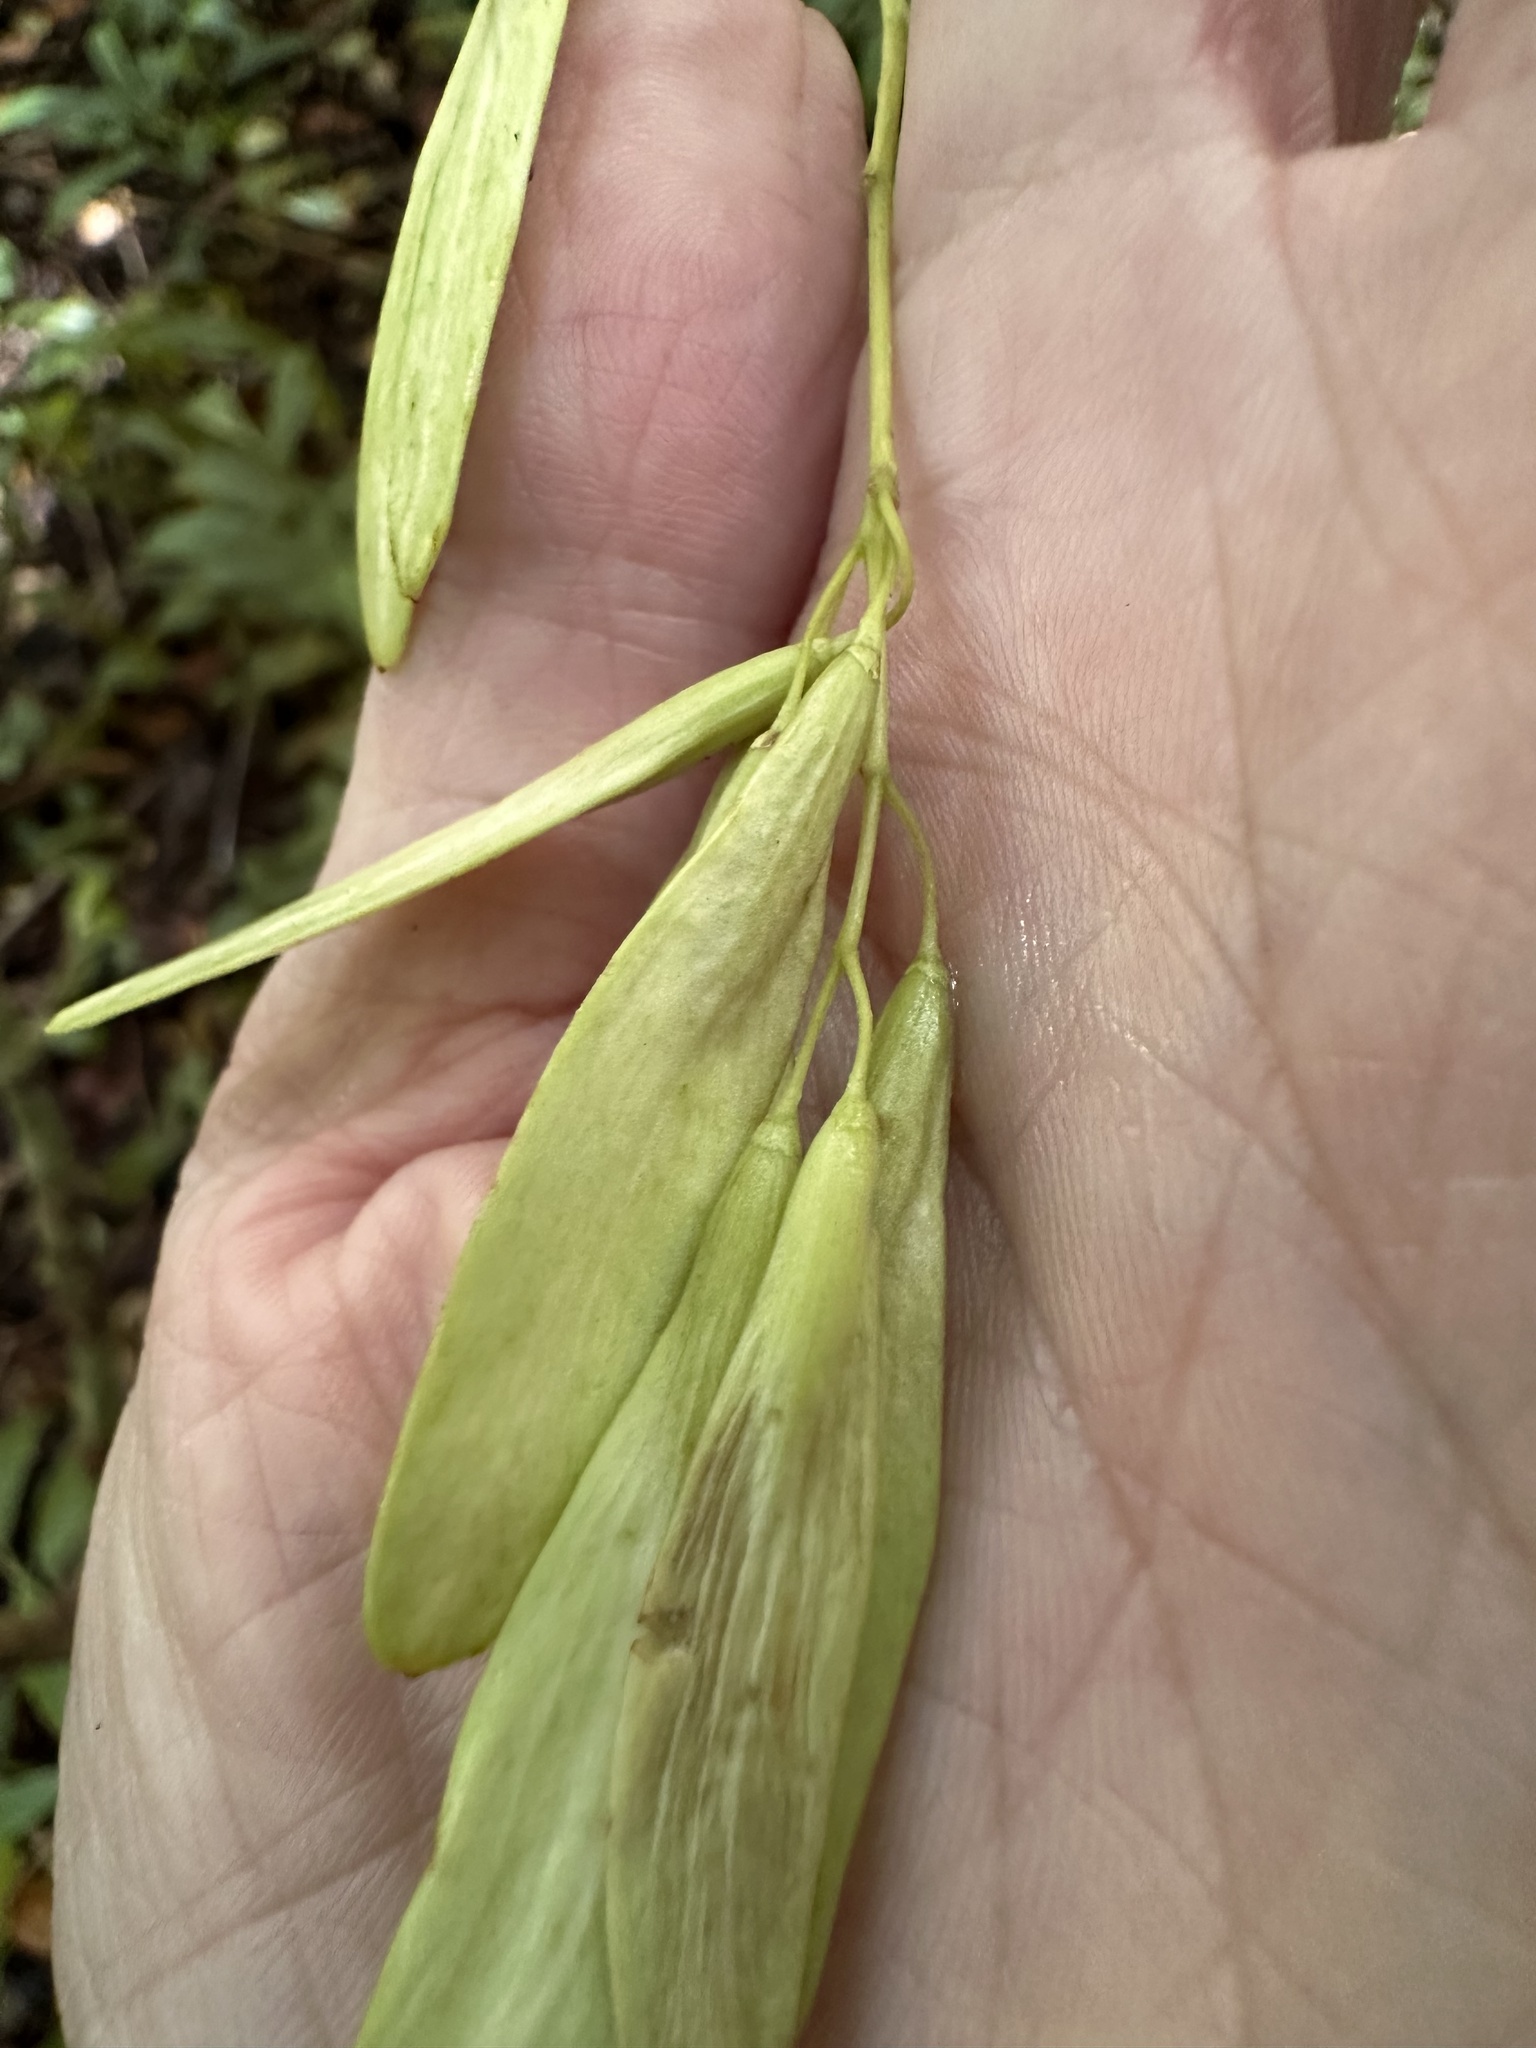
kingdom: Plantae
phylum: Tracheophyta
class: Magnoliopsida
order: Lamiales
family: Oleaceae
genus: Fraxinus
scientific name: Fraxinus uhdei
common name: Shamel ash
